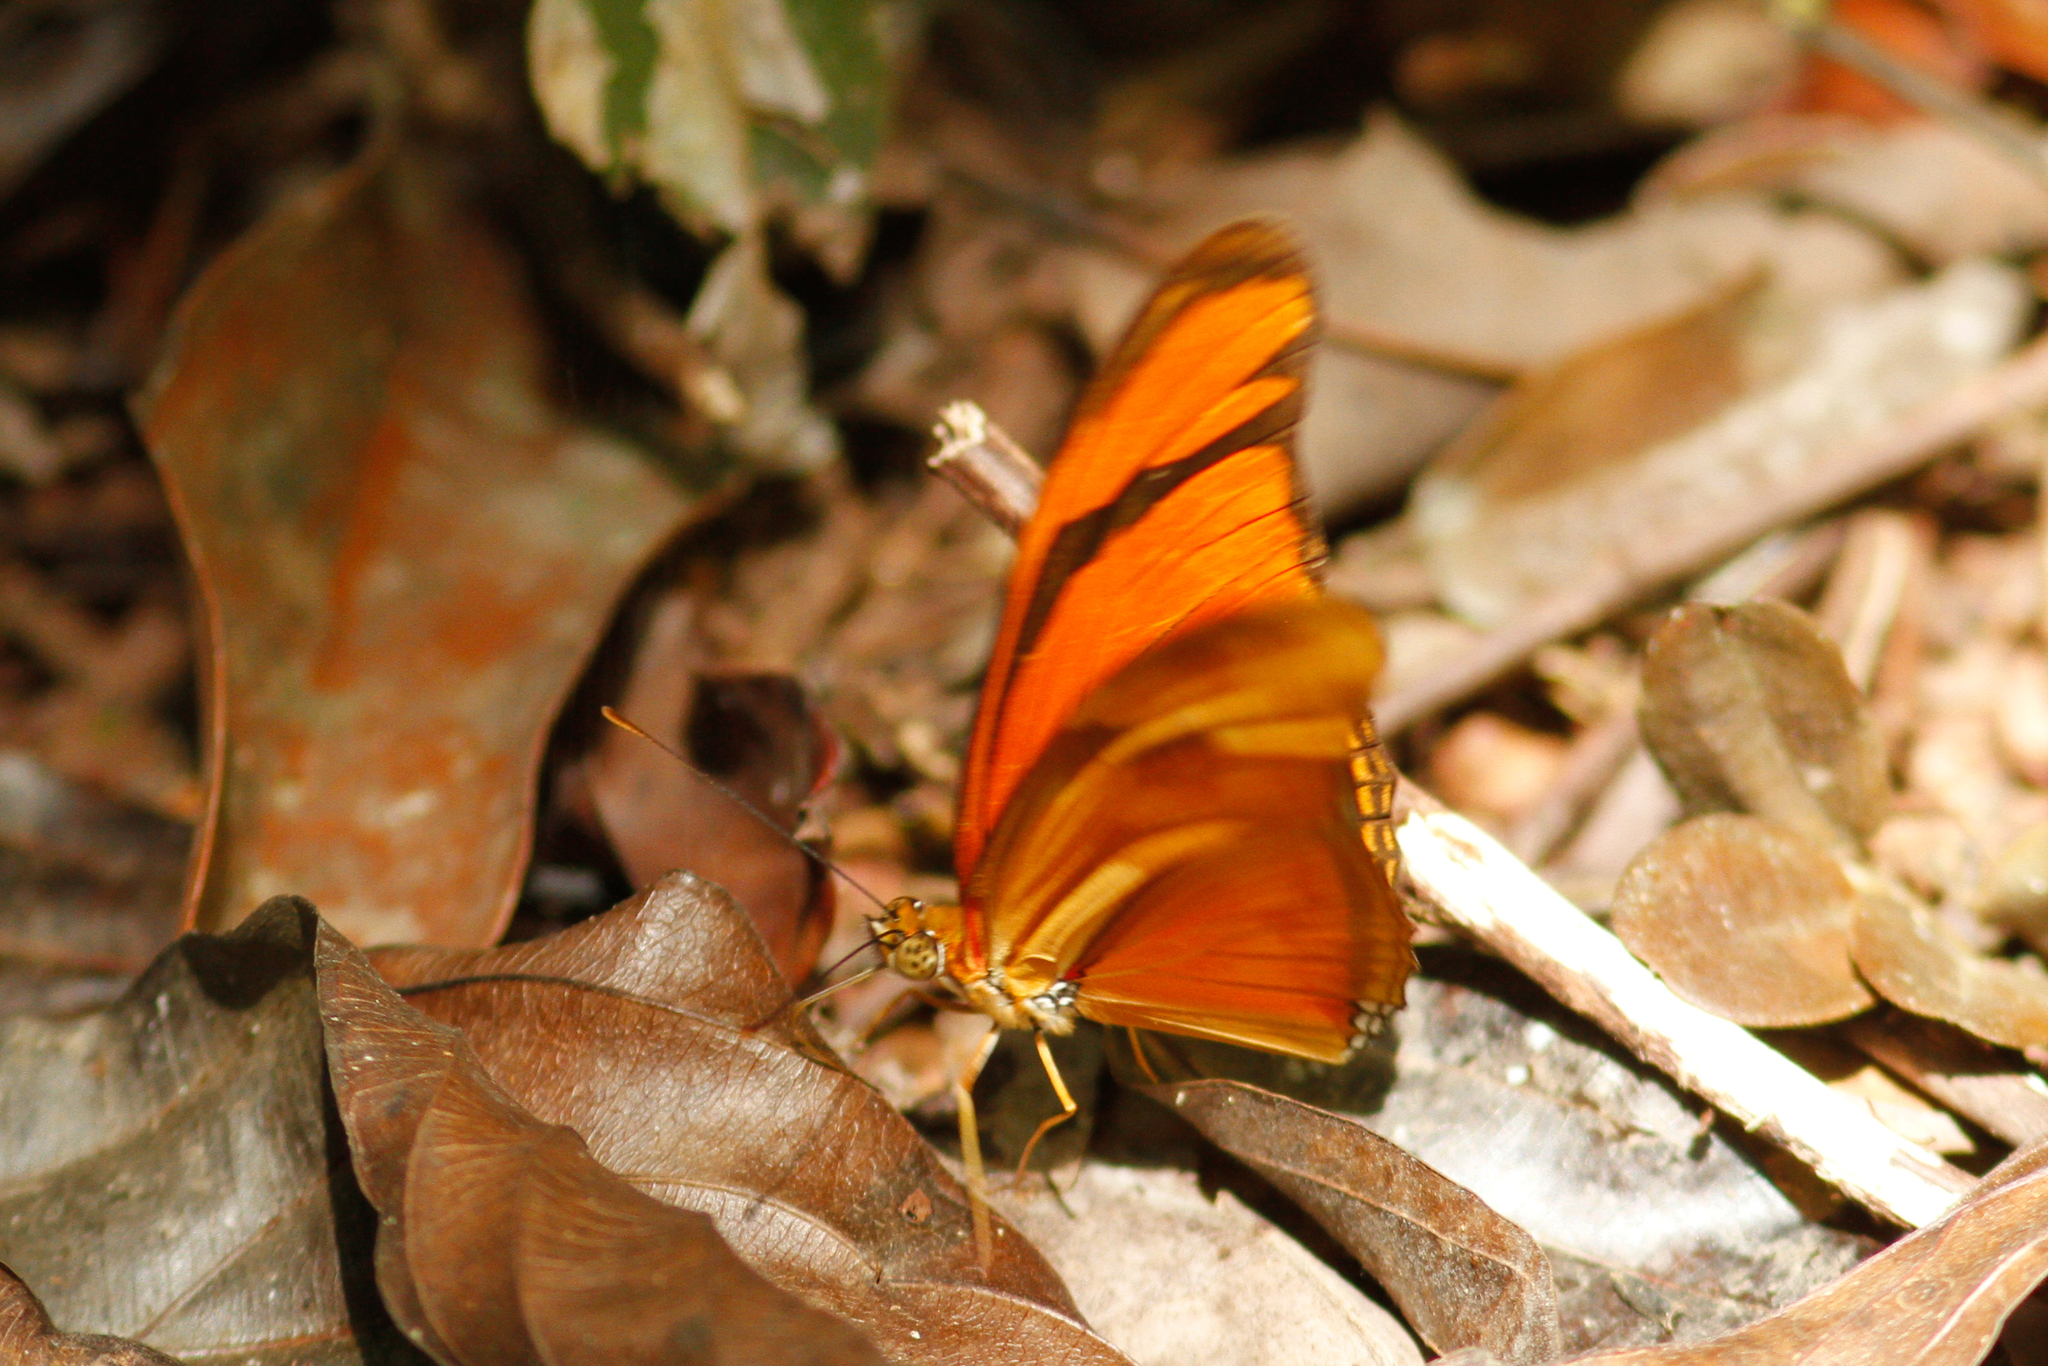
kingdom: Animalia
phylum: Arthropoda
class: Insecta
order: Lepidoptera
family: Nymphalidae
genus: Dryas
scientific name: Dryas iulia
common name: Flambeau
